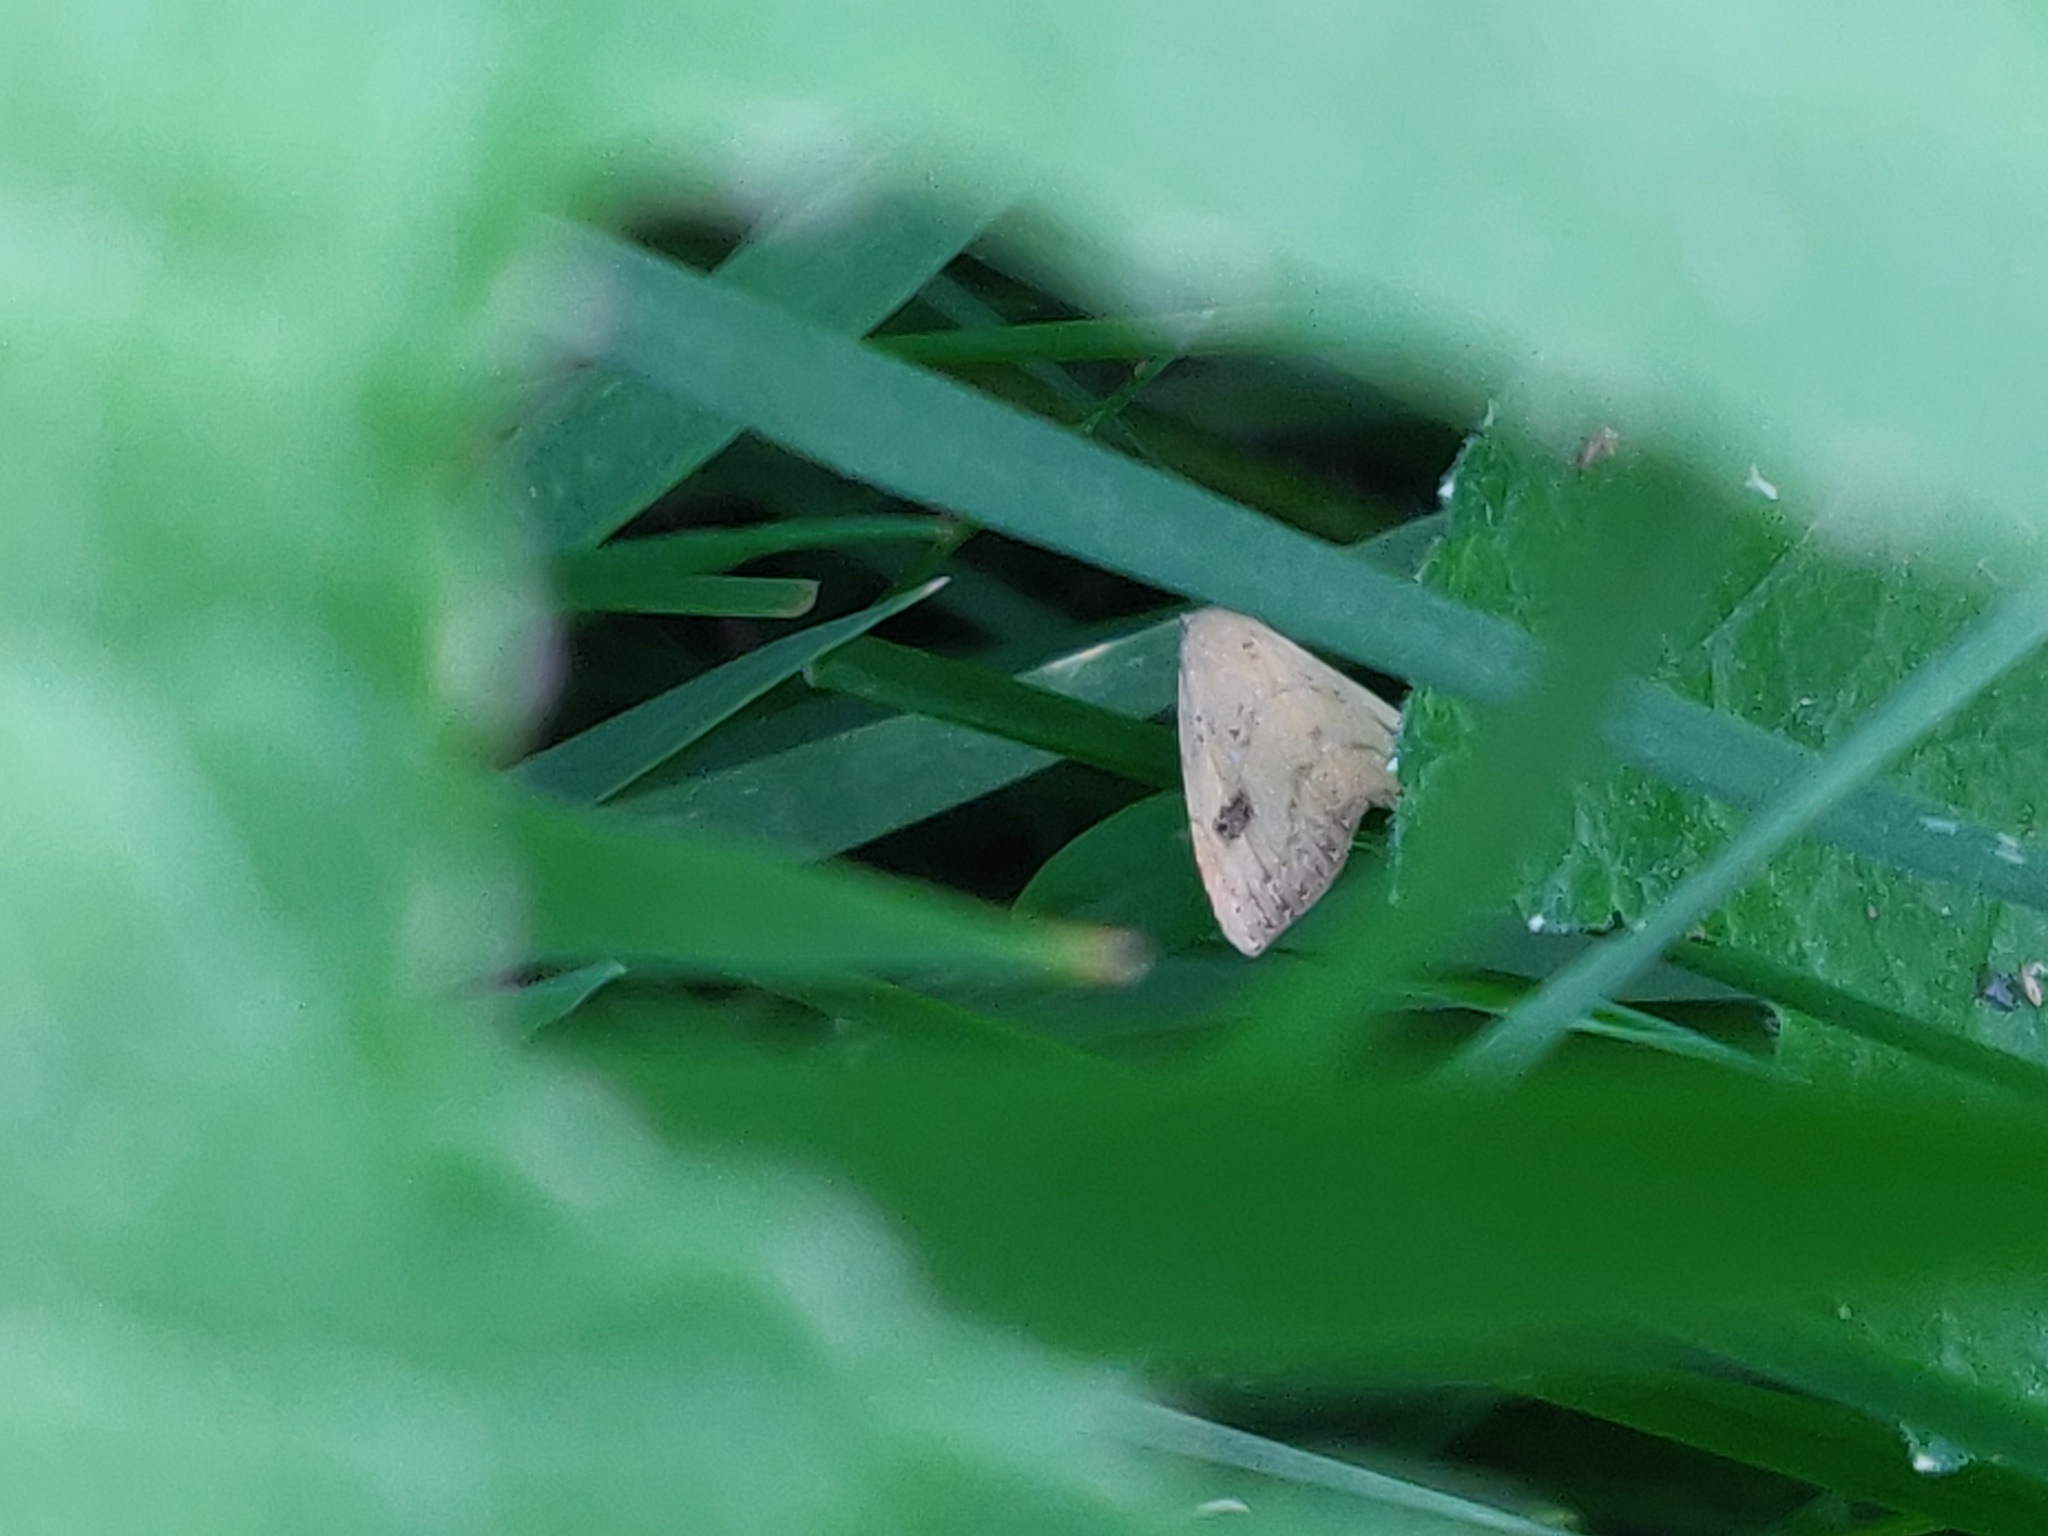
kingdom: Animalia
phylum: Arthropoda
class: Insecta
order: Lepidoptera
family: Erebidae
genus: Rivula
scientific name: Rivula sericealis
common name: Straw dot
